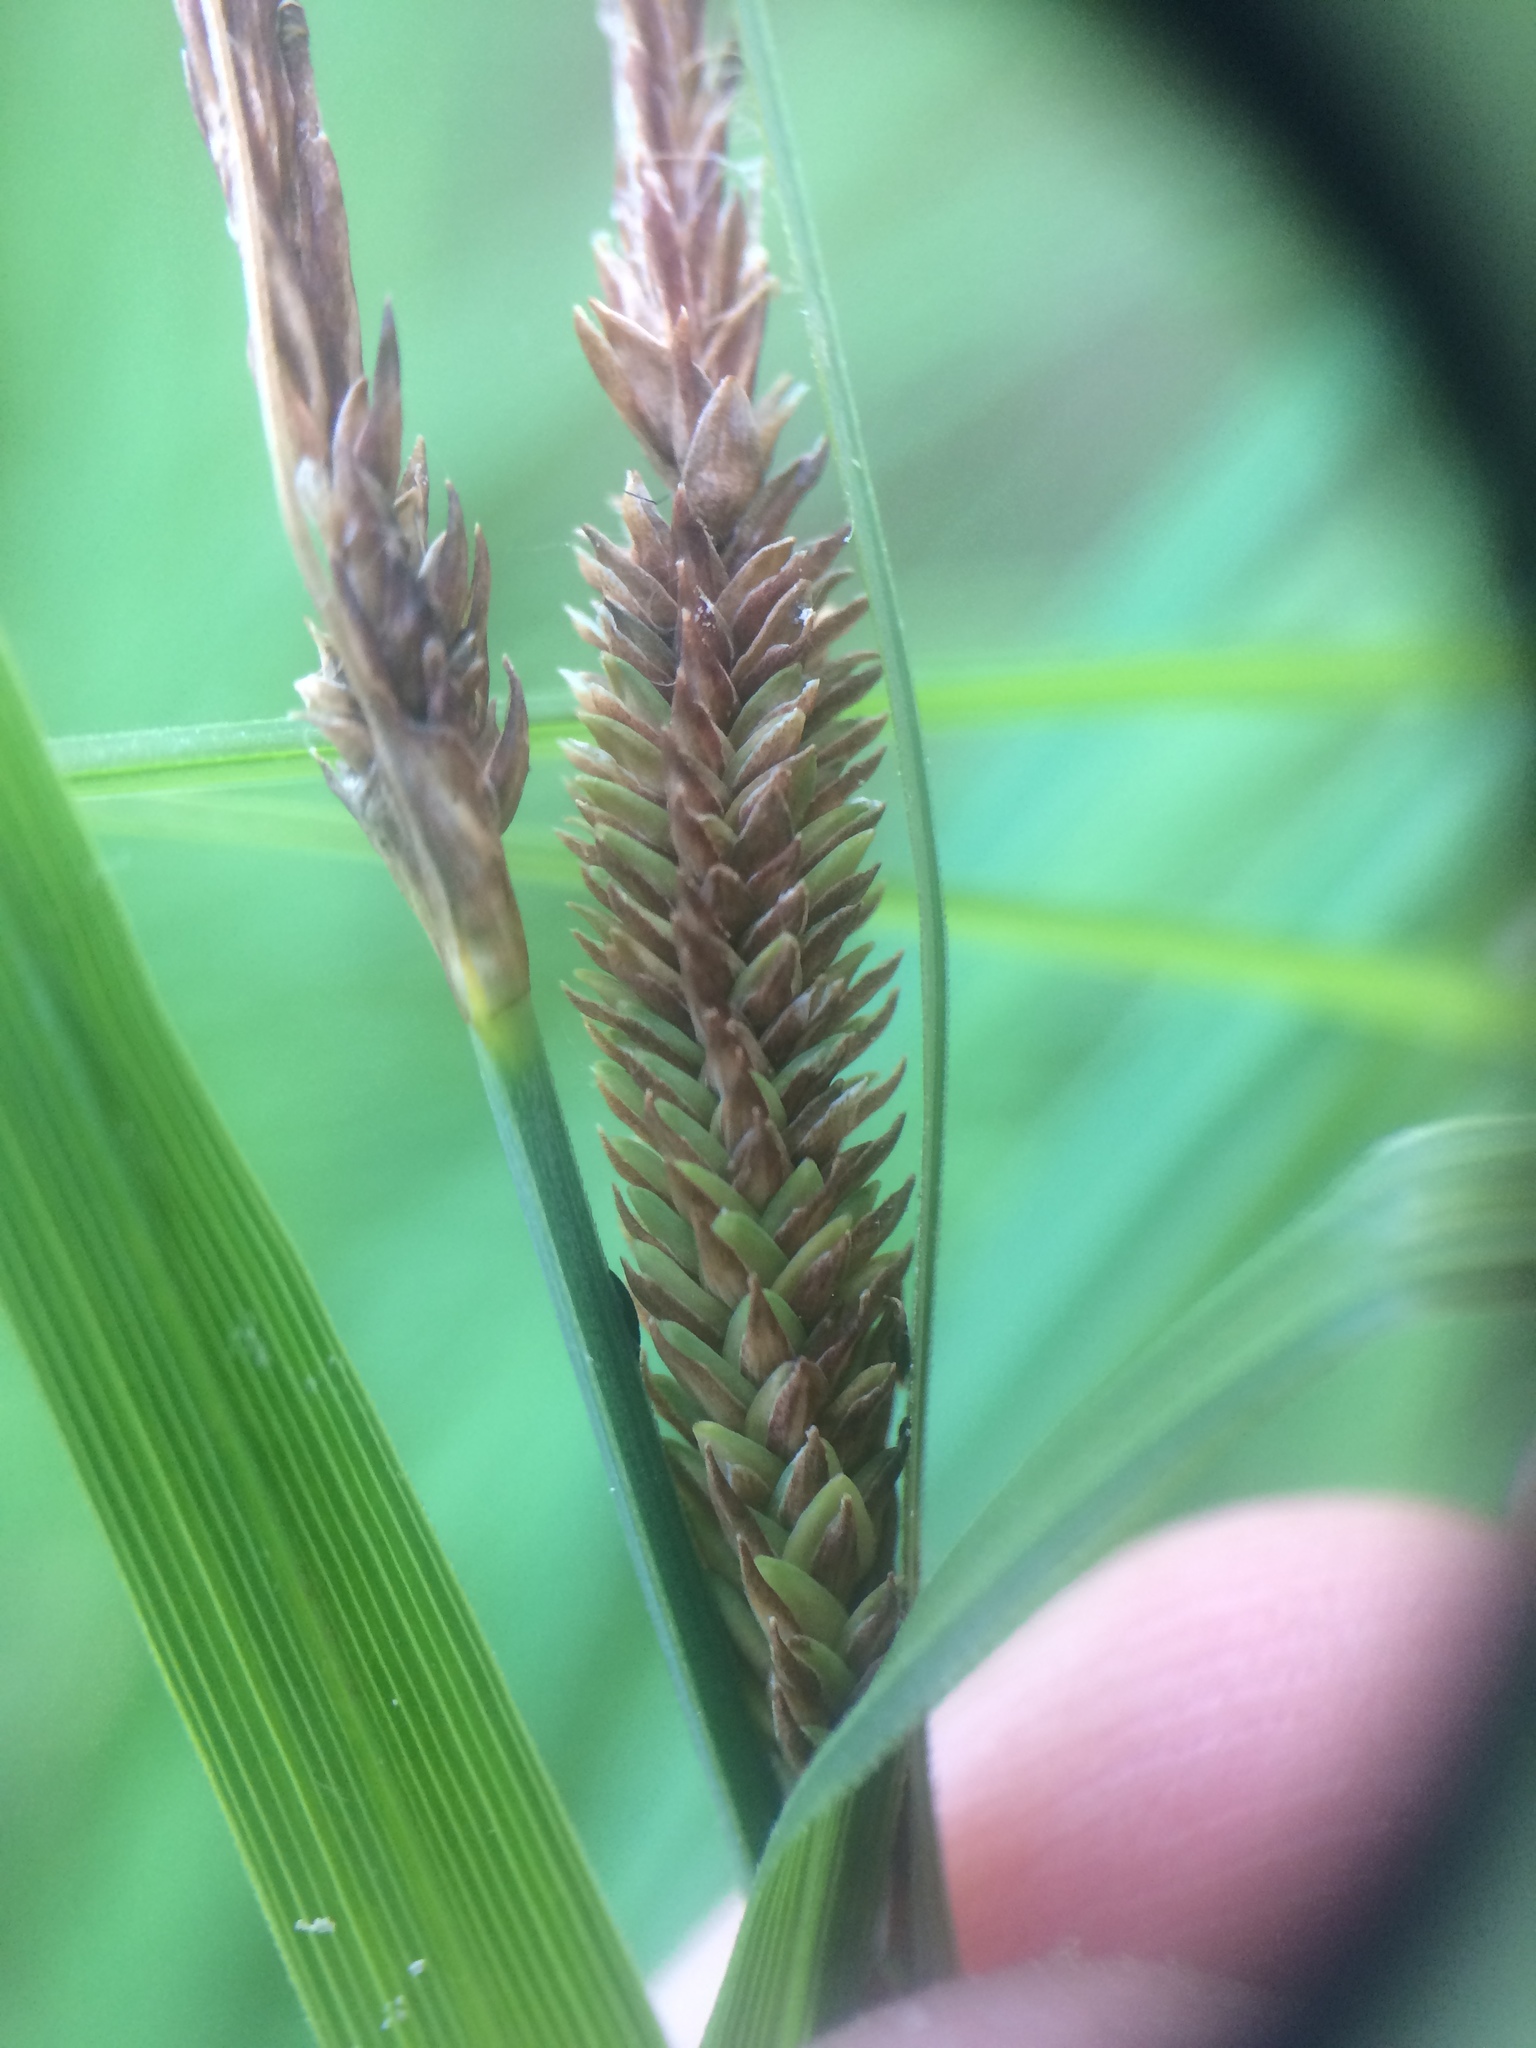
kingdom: Plantae
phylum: Tracheophyta
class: Liliopsida
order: Poales
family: Cyperaceae
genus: Carex
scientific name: Carex stricta
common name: Hummock sedge
